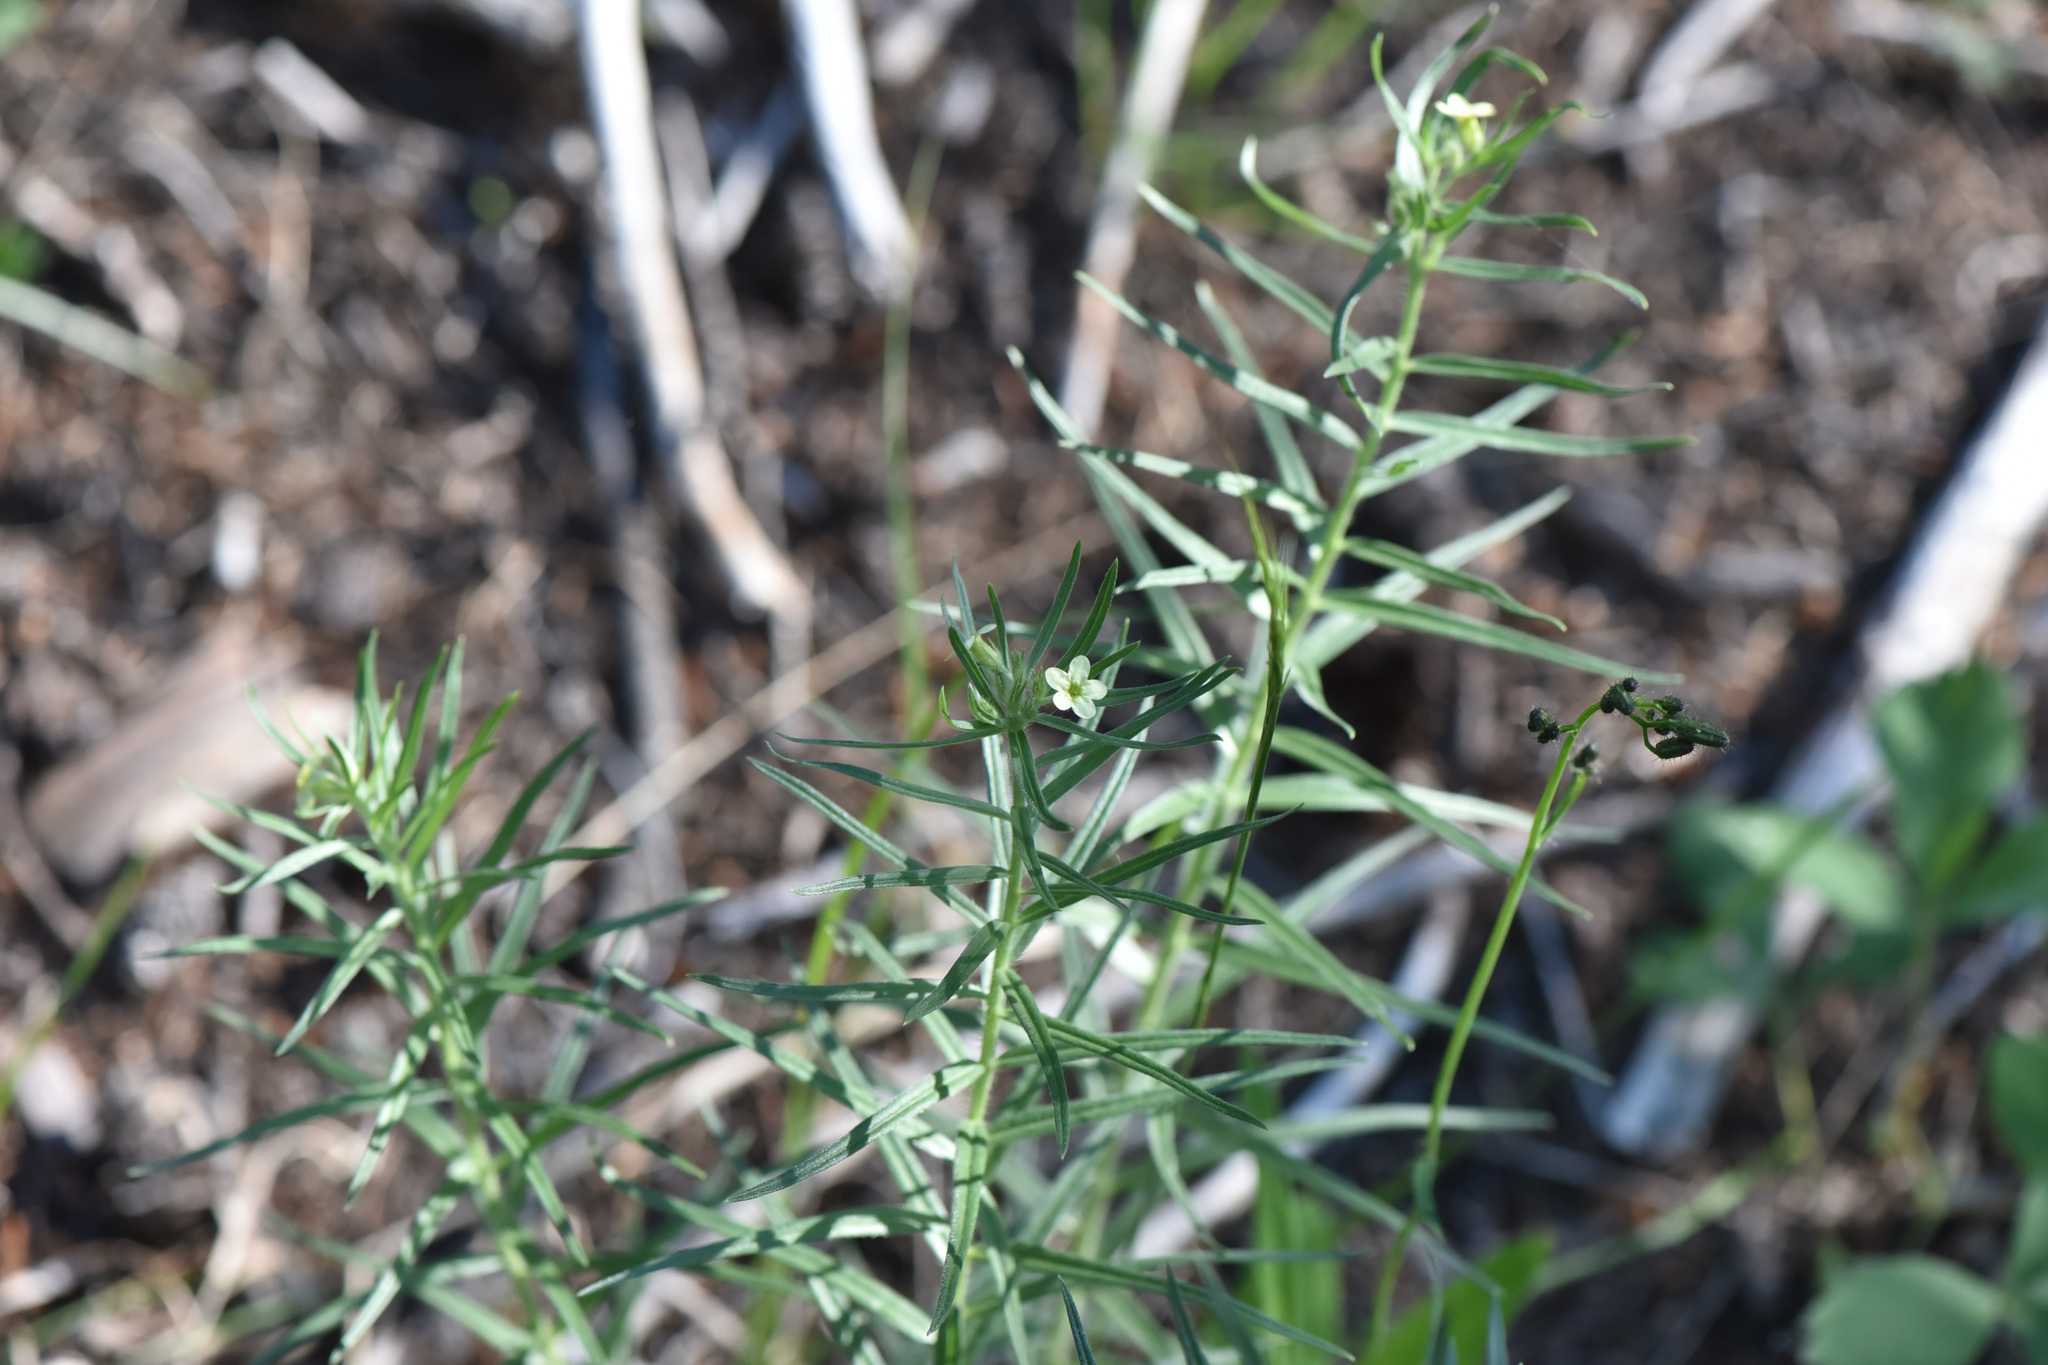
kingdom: Plantae
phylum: Tracheophyta
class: Magnoliopsida
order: Boraginales
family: Boraginaceae
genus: Lithospermum
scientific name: Lithospermum ruderale
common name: Western gromwell
